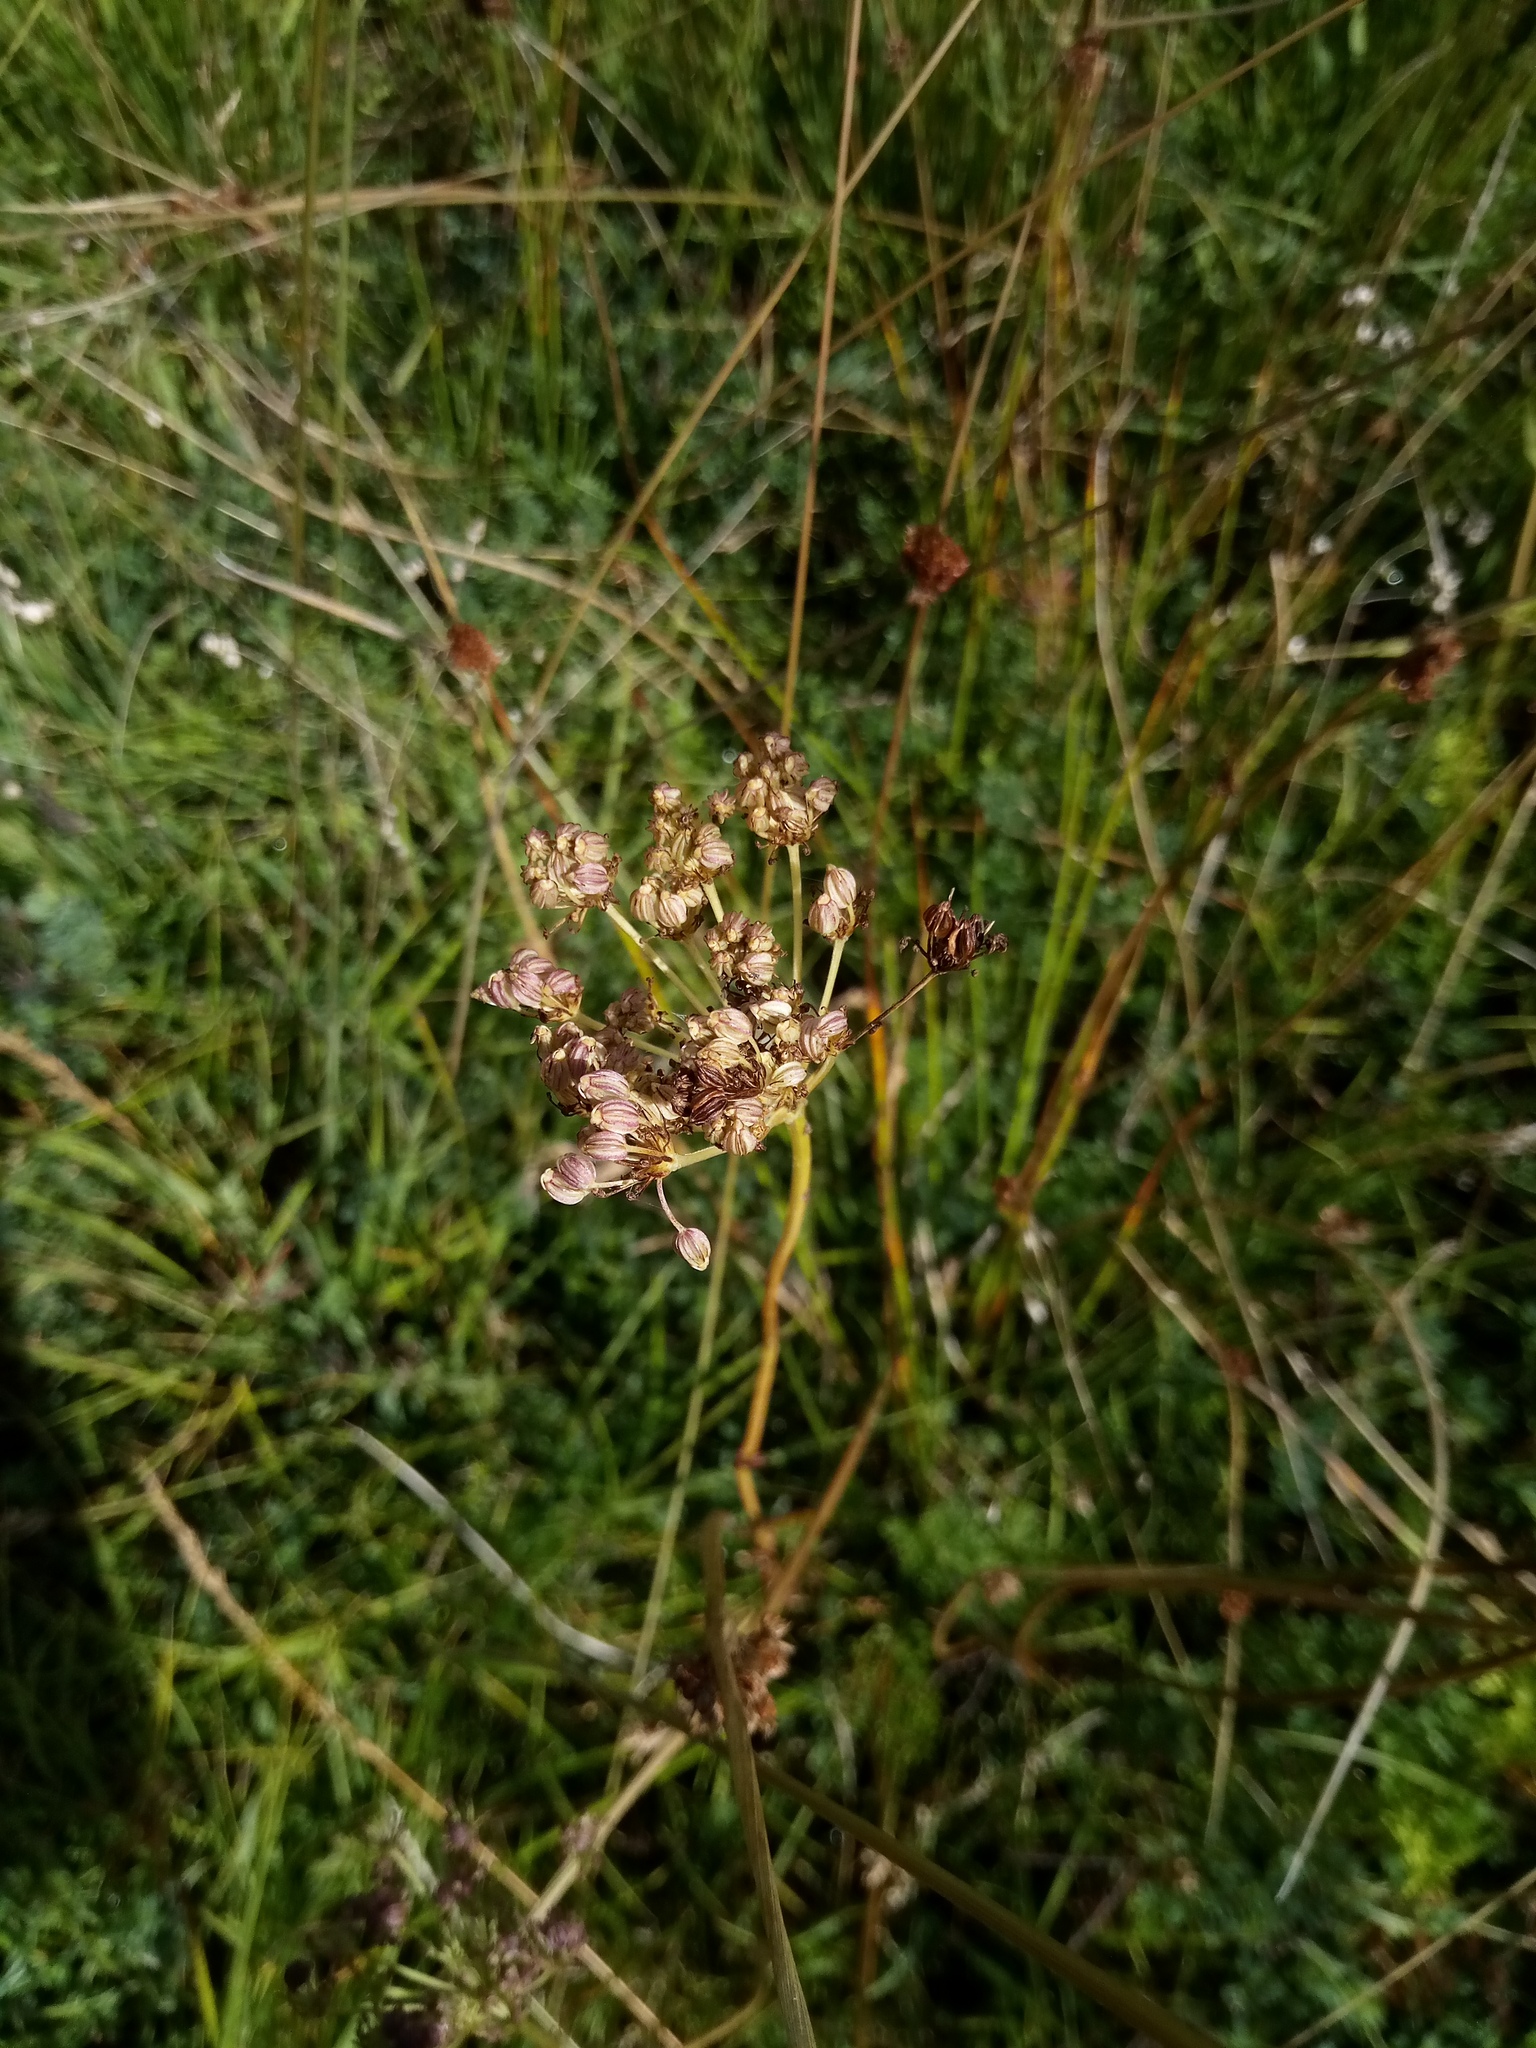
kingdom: Plantae
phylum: Tracheophyta
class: Magnoliopsida
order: Apiales
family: Apiaceae
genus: Selinum
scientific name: Selinum carvifolia
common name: Cambridge milk-parsley
